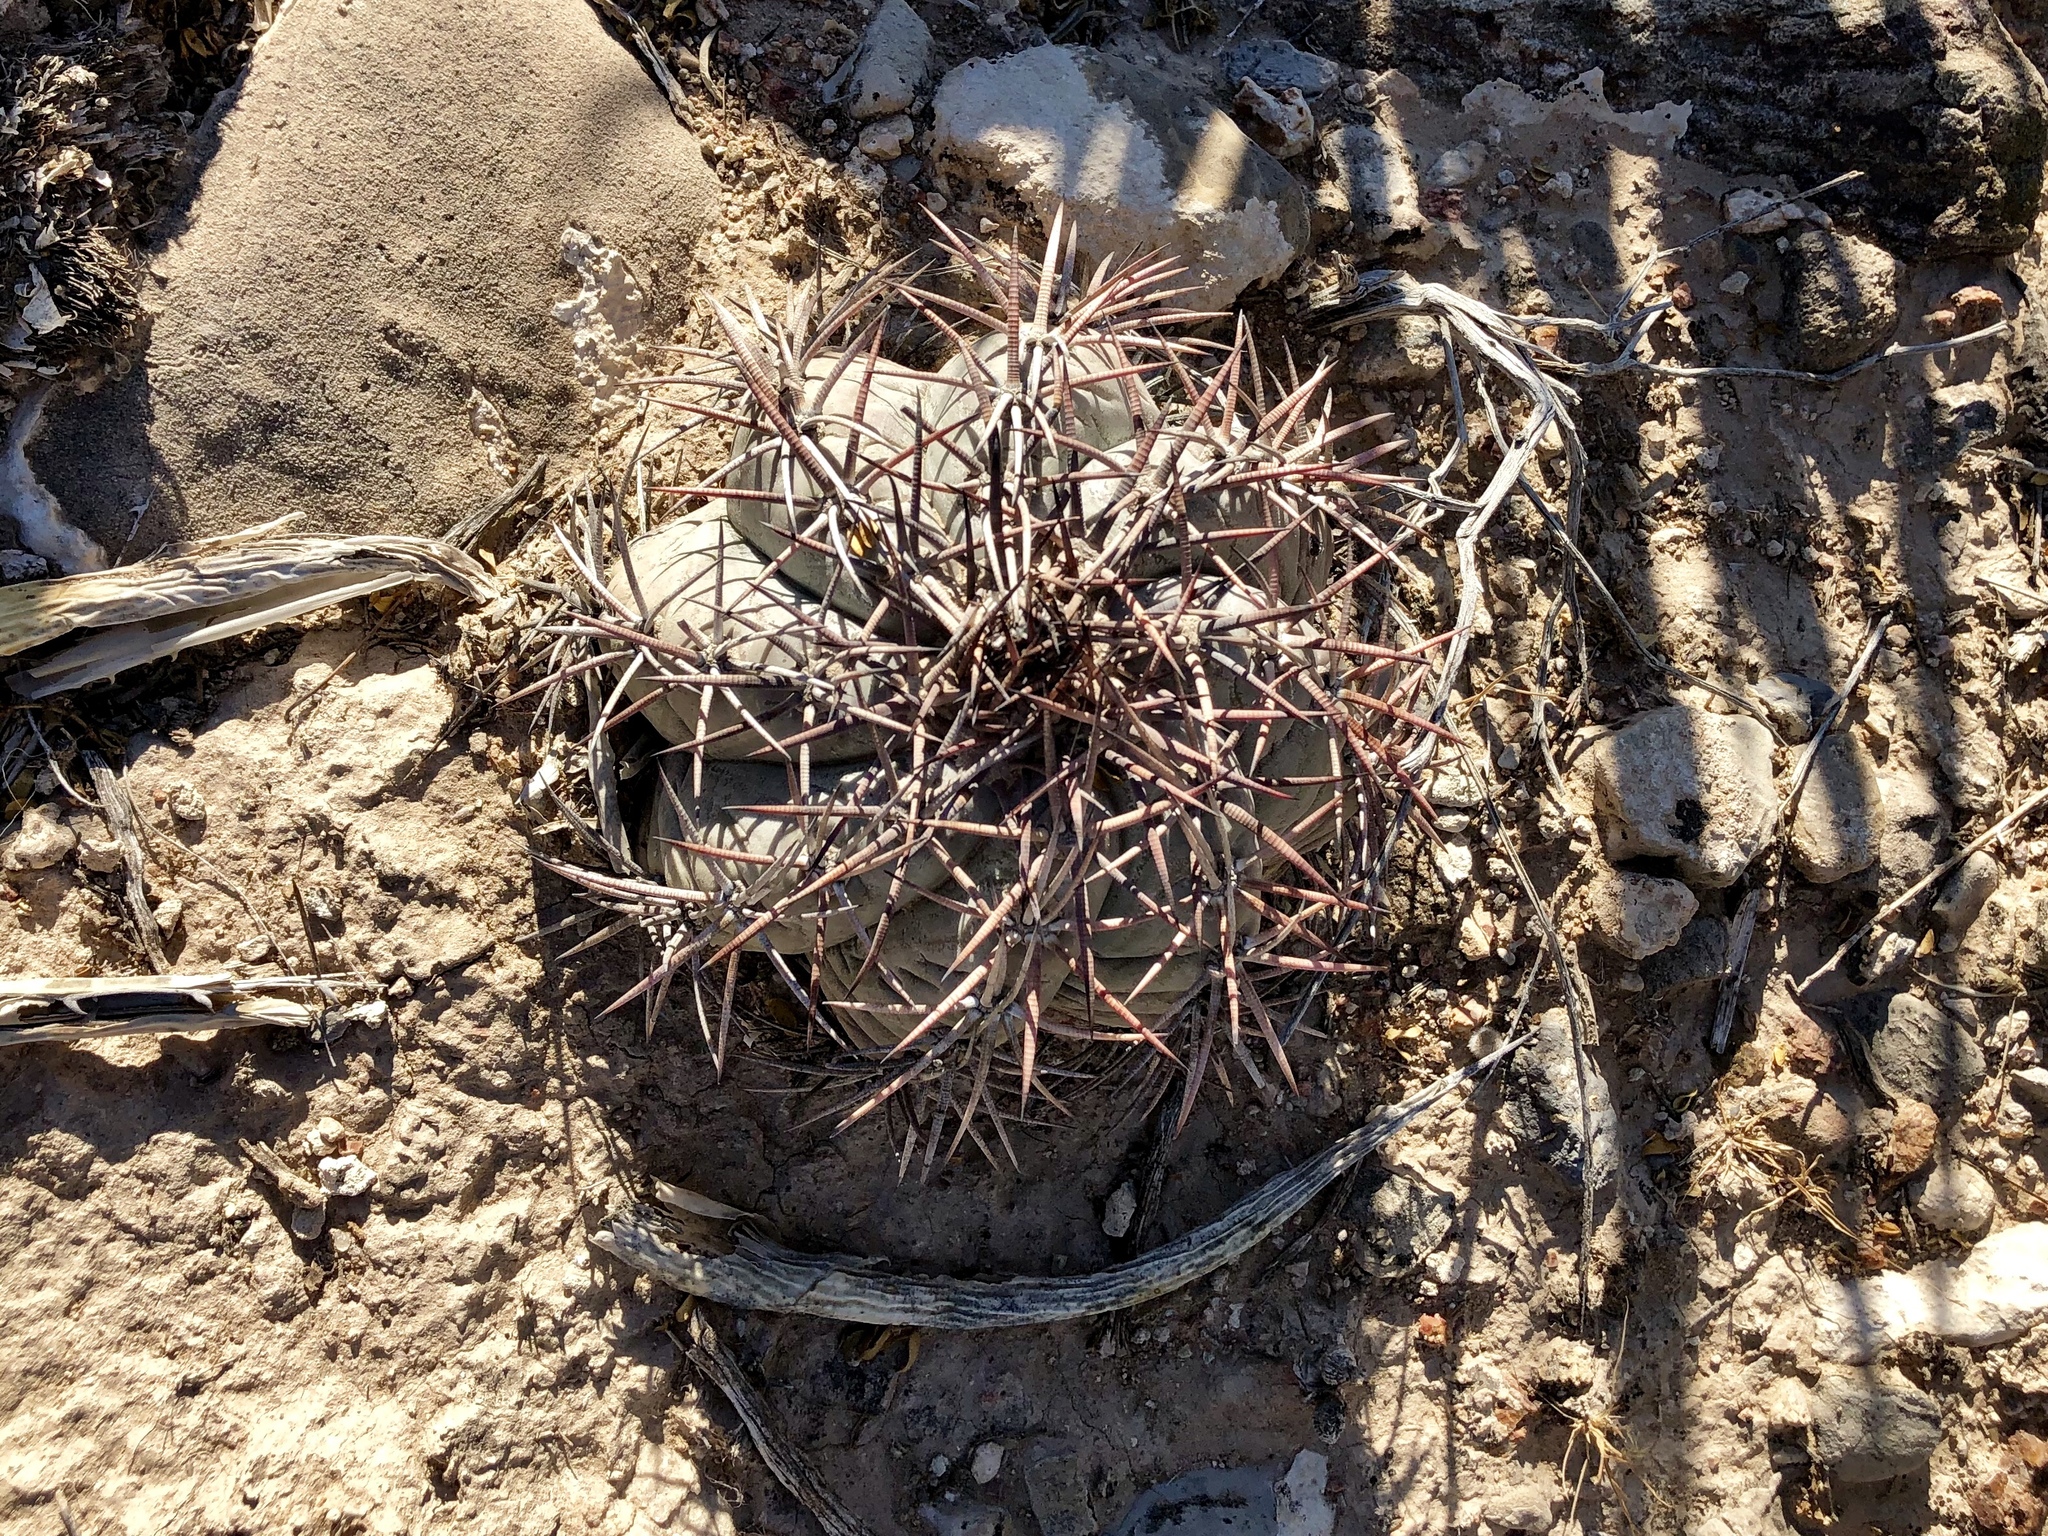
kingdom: Plantae
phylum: Tracheophyta
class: Magnoliopsida
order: Caryophyllales
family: Cactaceae
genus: Echinocactus
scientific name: Echinocactus horizonthalonius
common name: Devilshead
